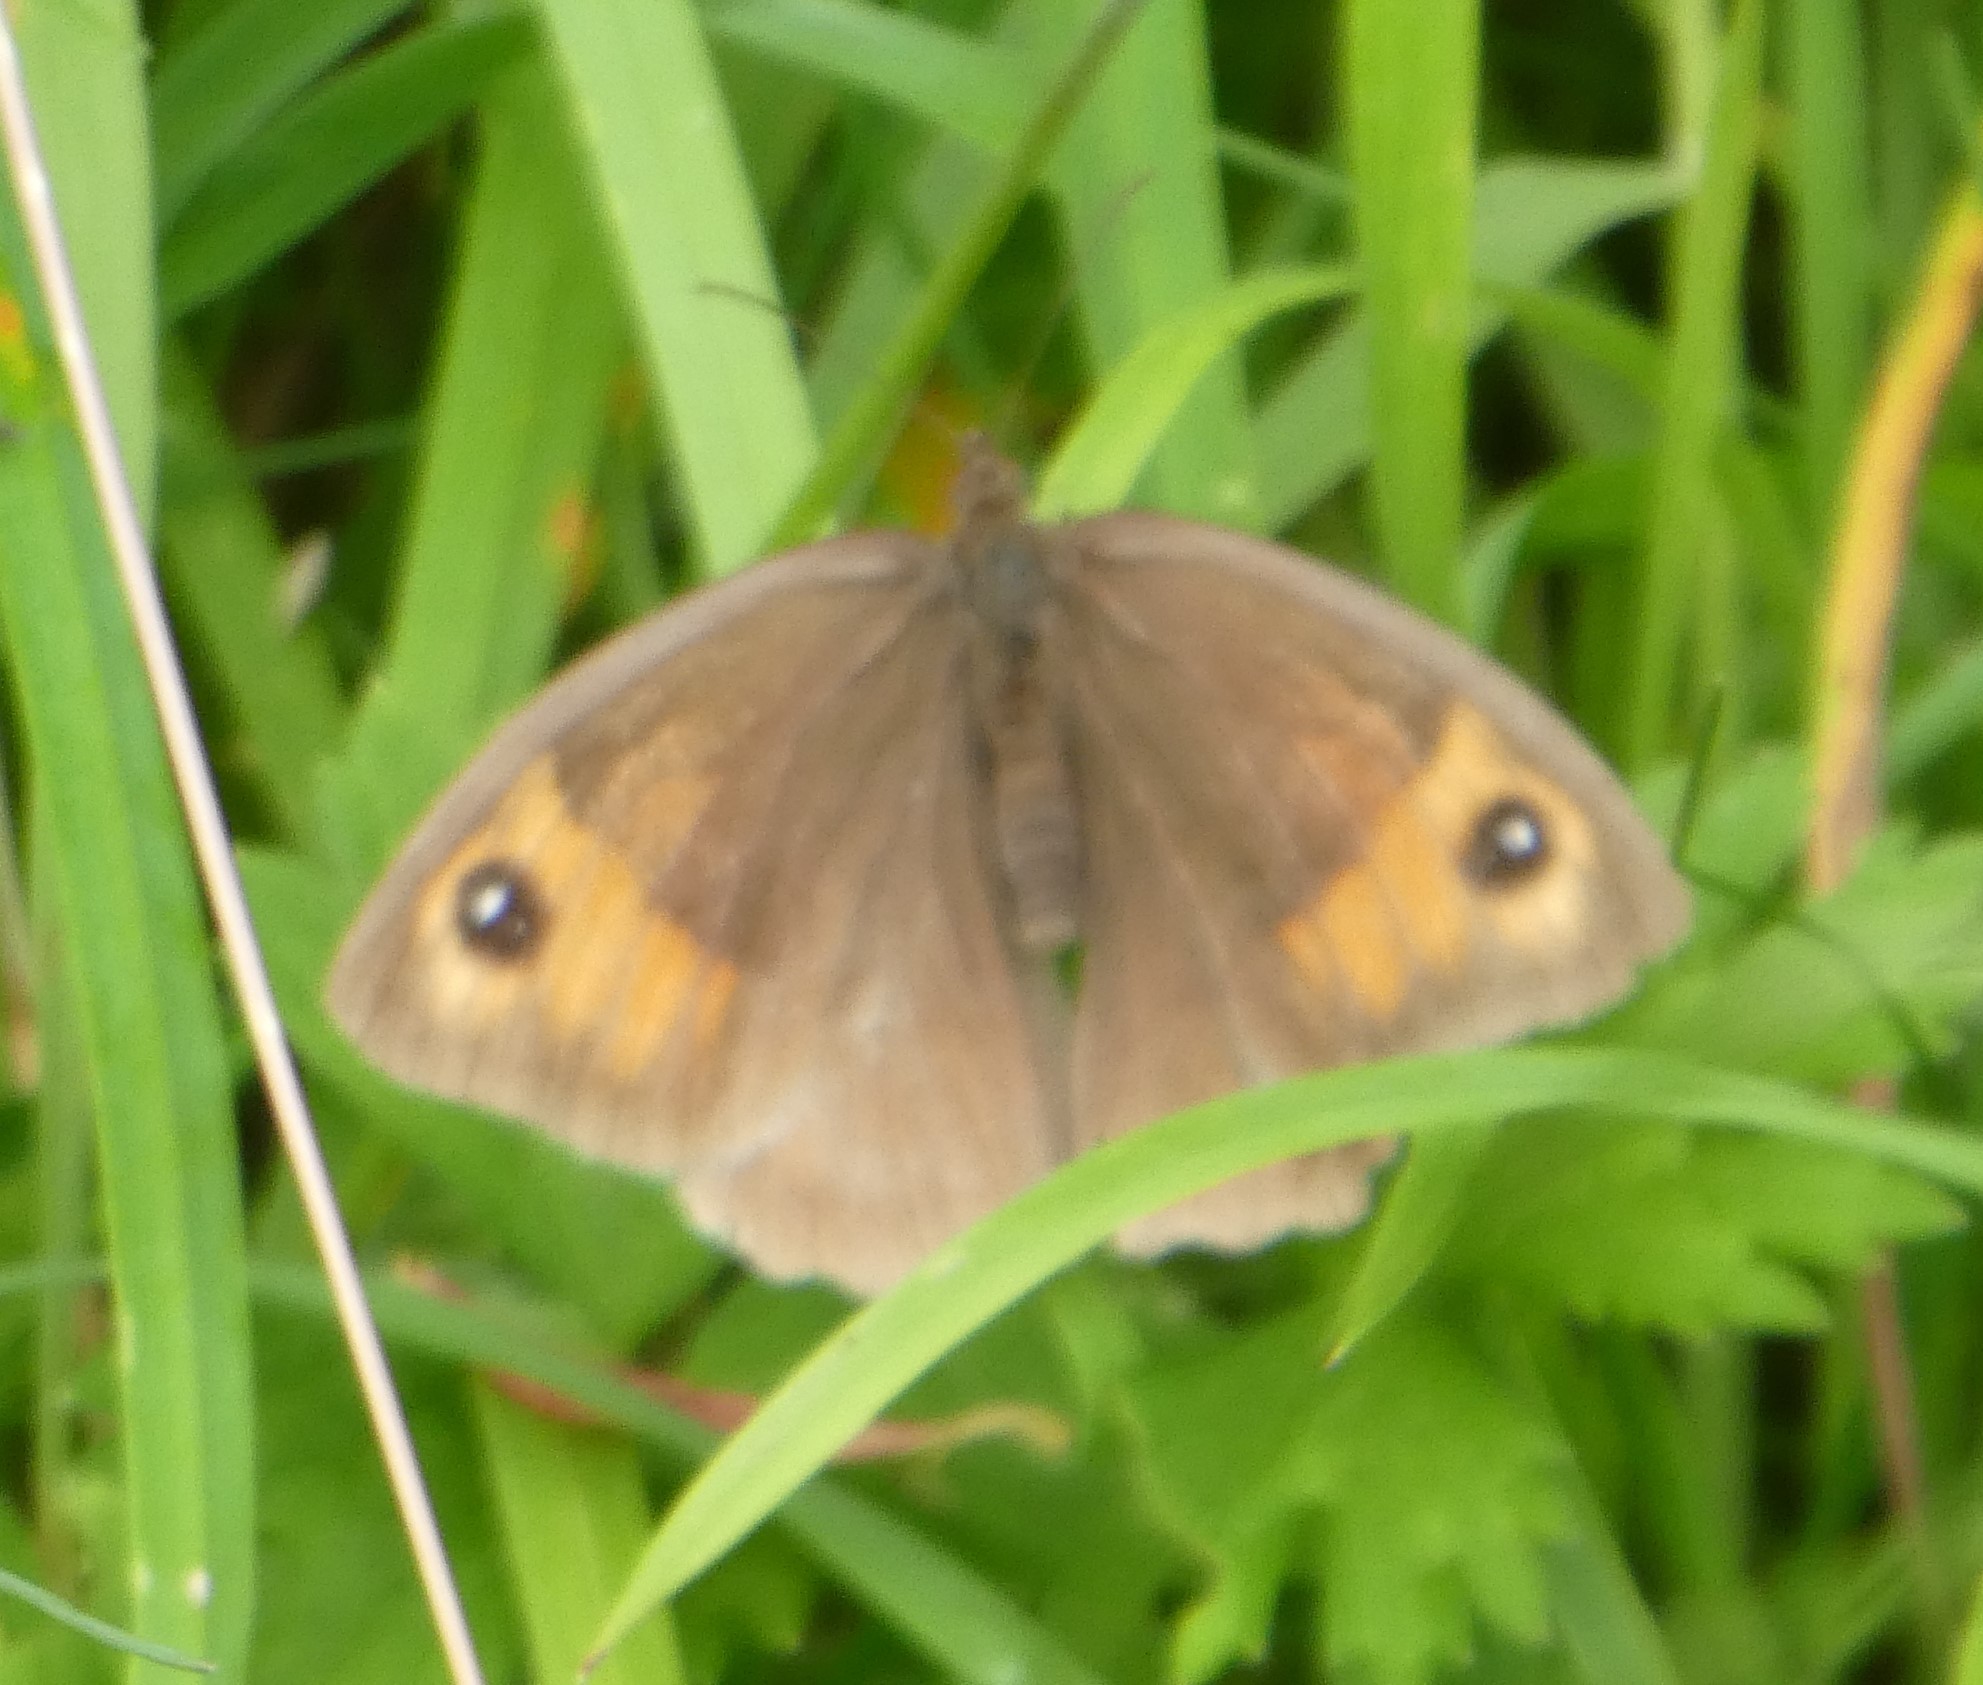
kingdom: Animalia
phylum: Arthropoda
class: Insecta
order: Lepidoptera
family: Nymphalidae
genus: Maniola
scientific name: Maniola jurtina
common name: Meadow brown
